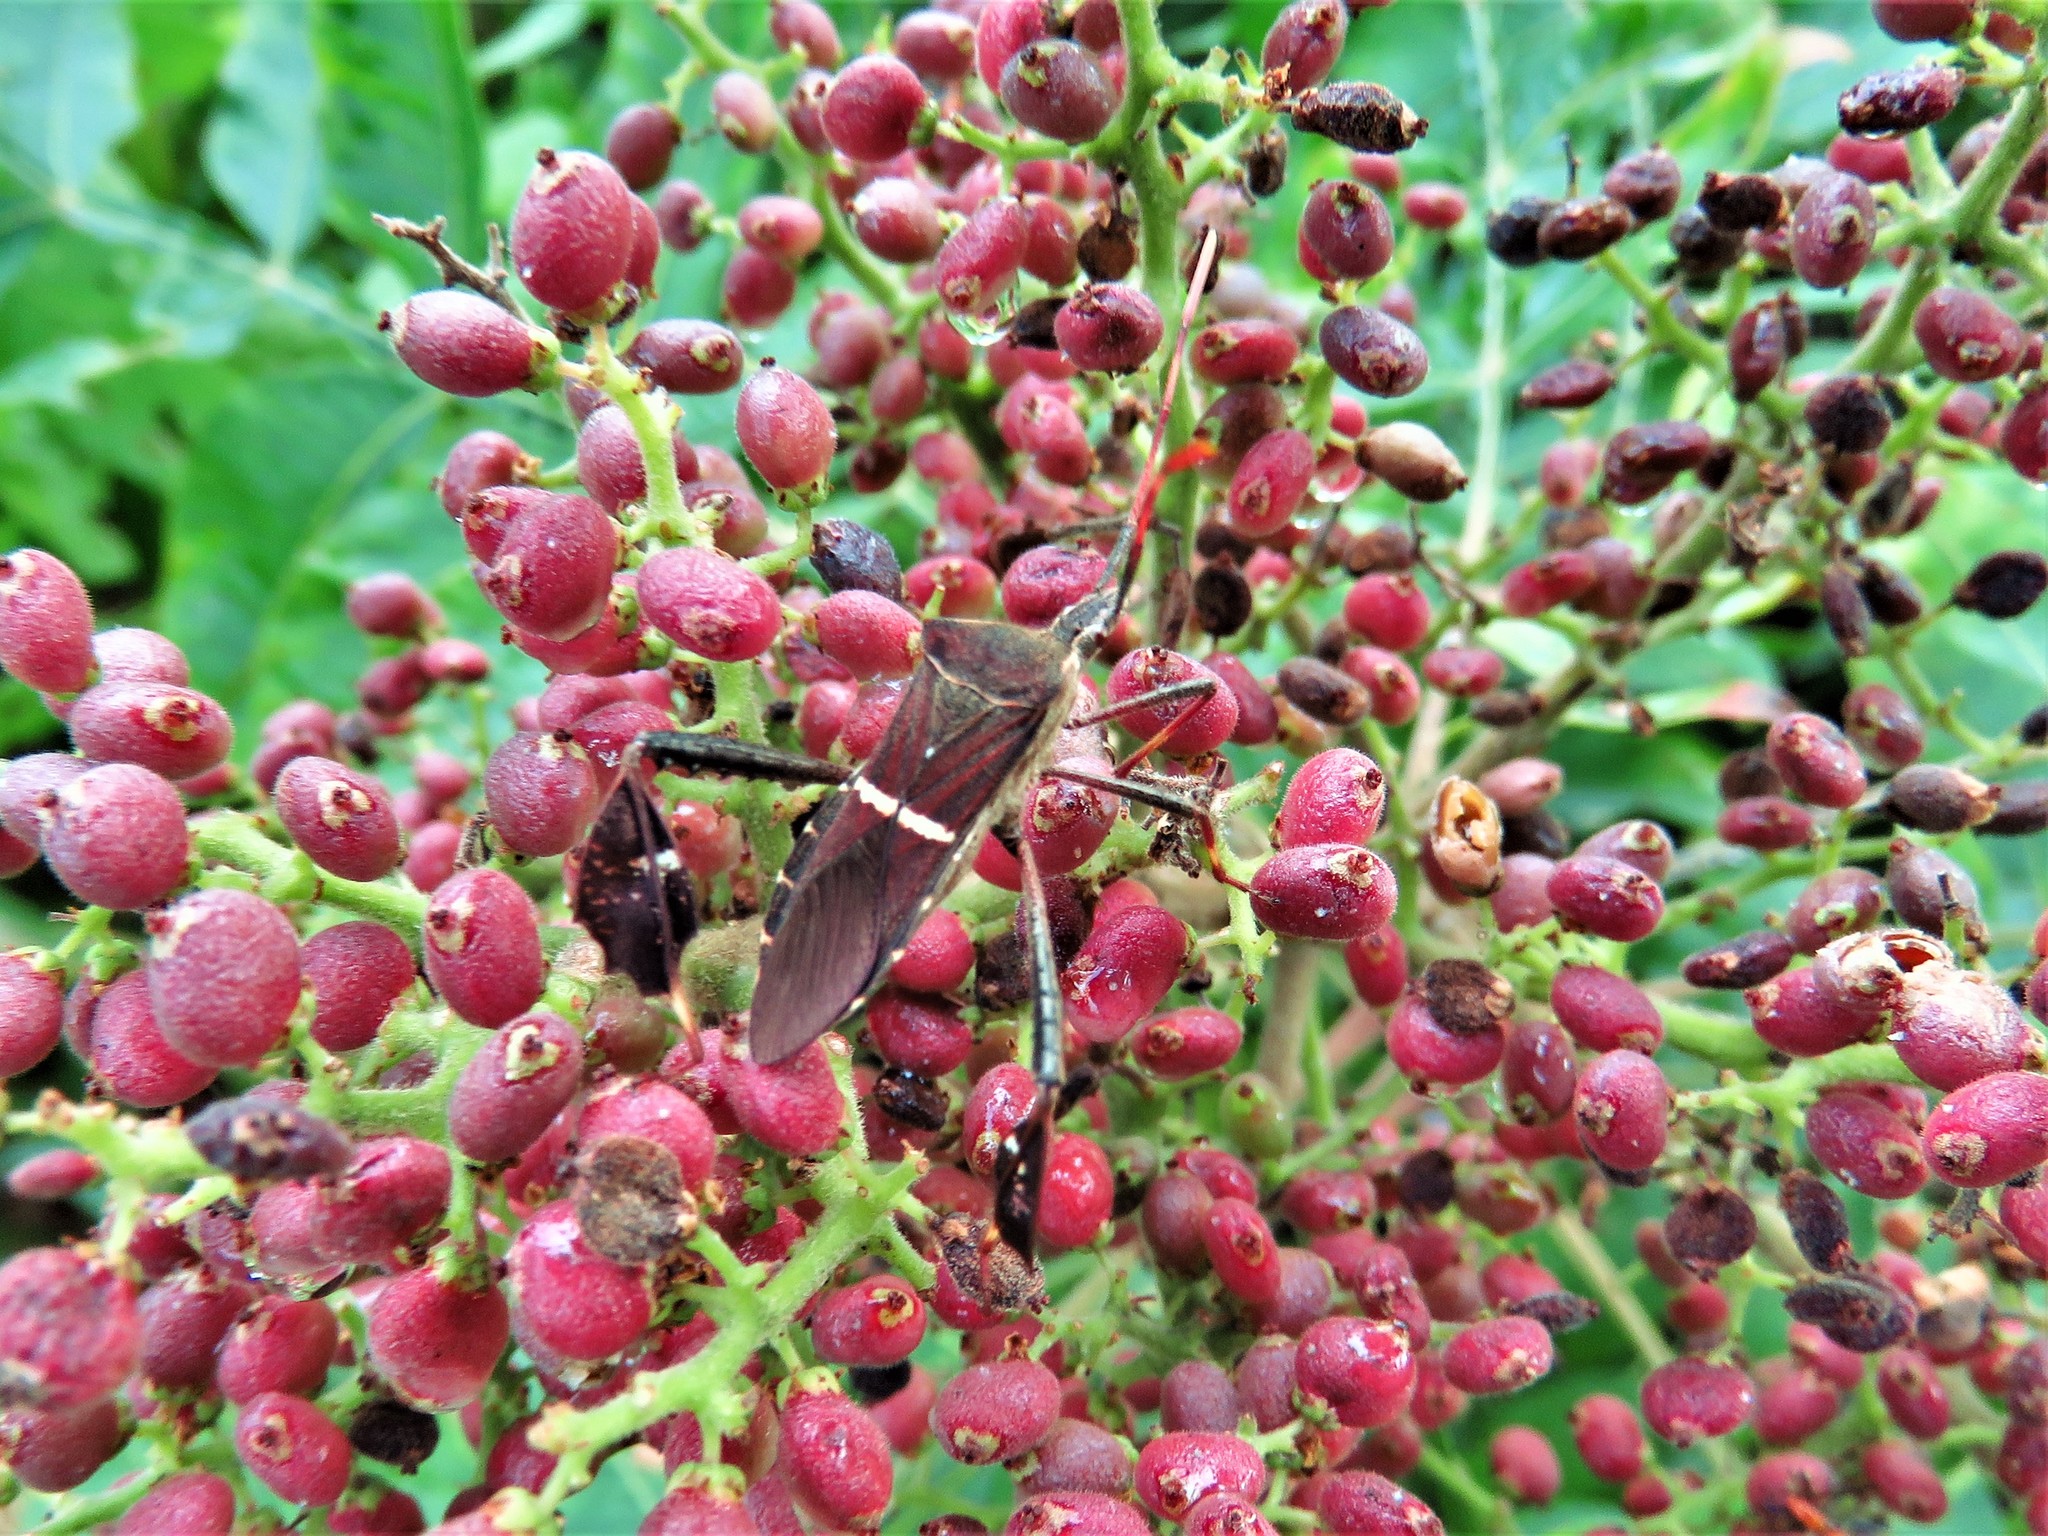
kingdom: Animalia
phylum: Arthropoda
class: Insecta
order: Hemiptera
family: Coreidae
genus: Leptoglossus
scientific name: Leptoglossus phyllopus
